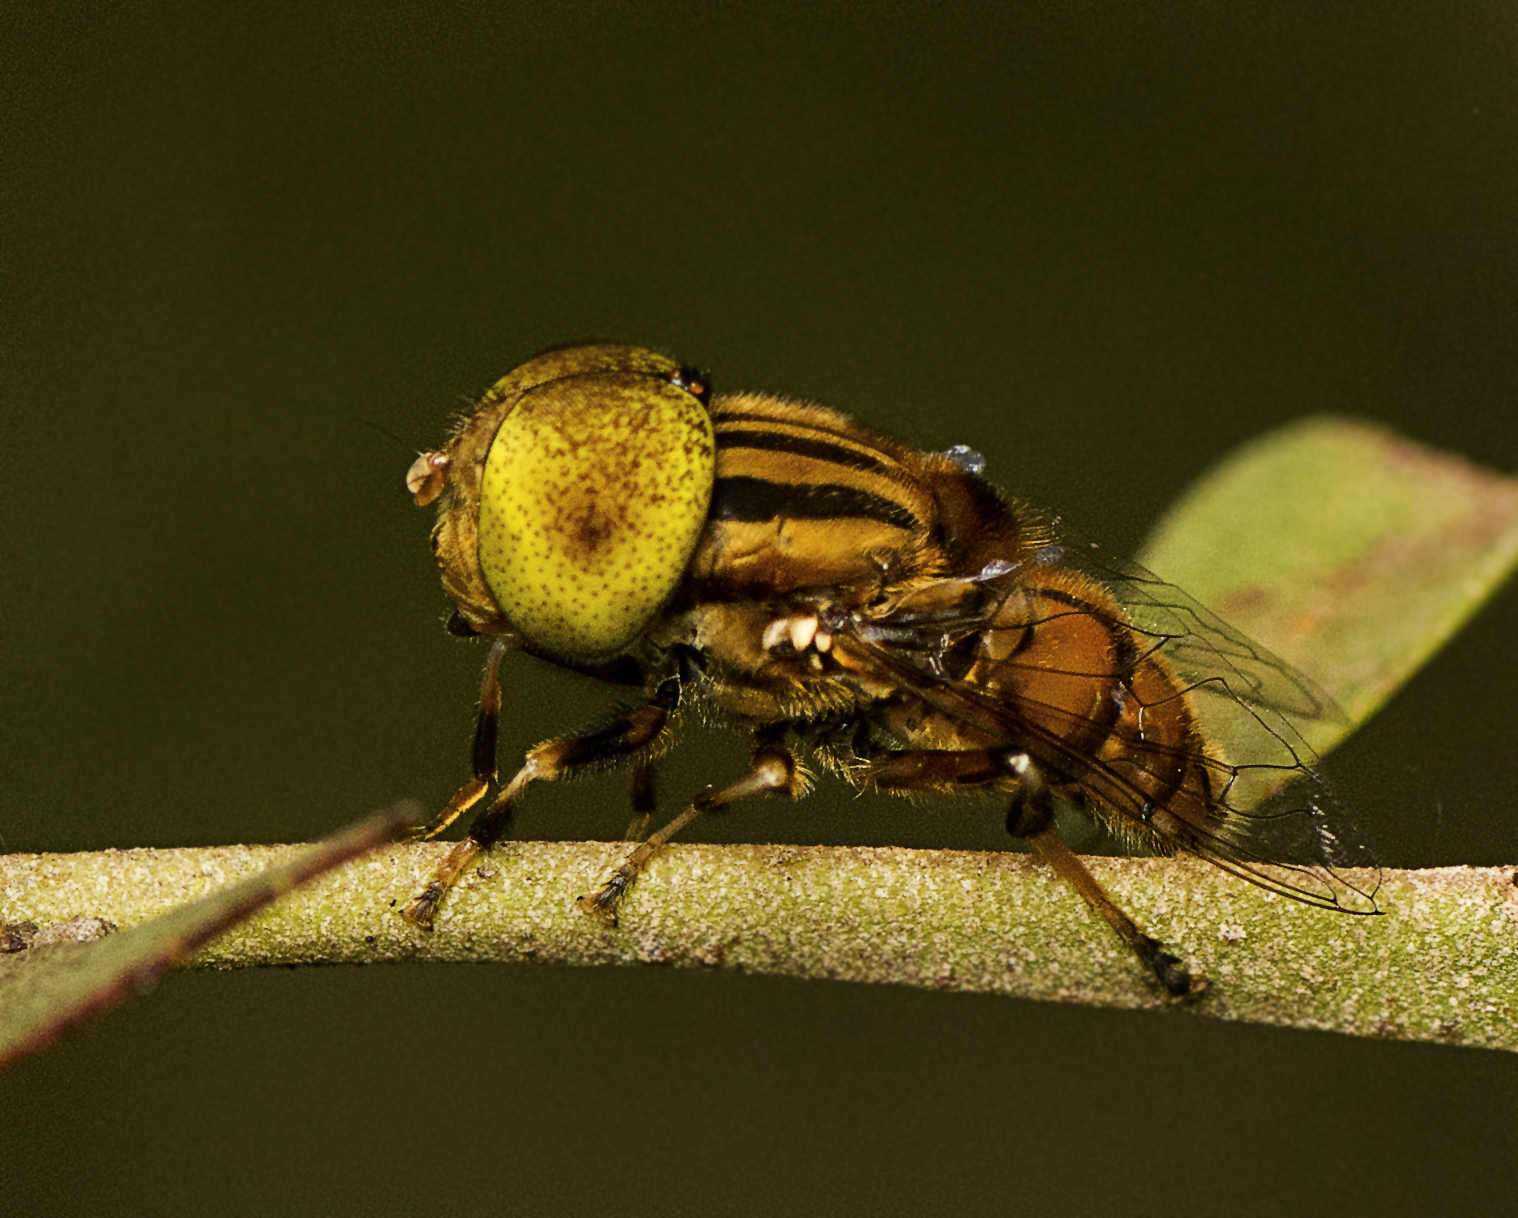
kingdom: Animalia
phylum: Arthropoda
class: Insecta
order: Diptera
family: Syrphidae
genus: Eristalinus
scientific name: Eristalinus punctulatus
